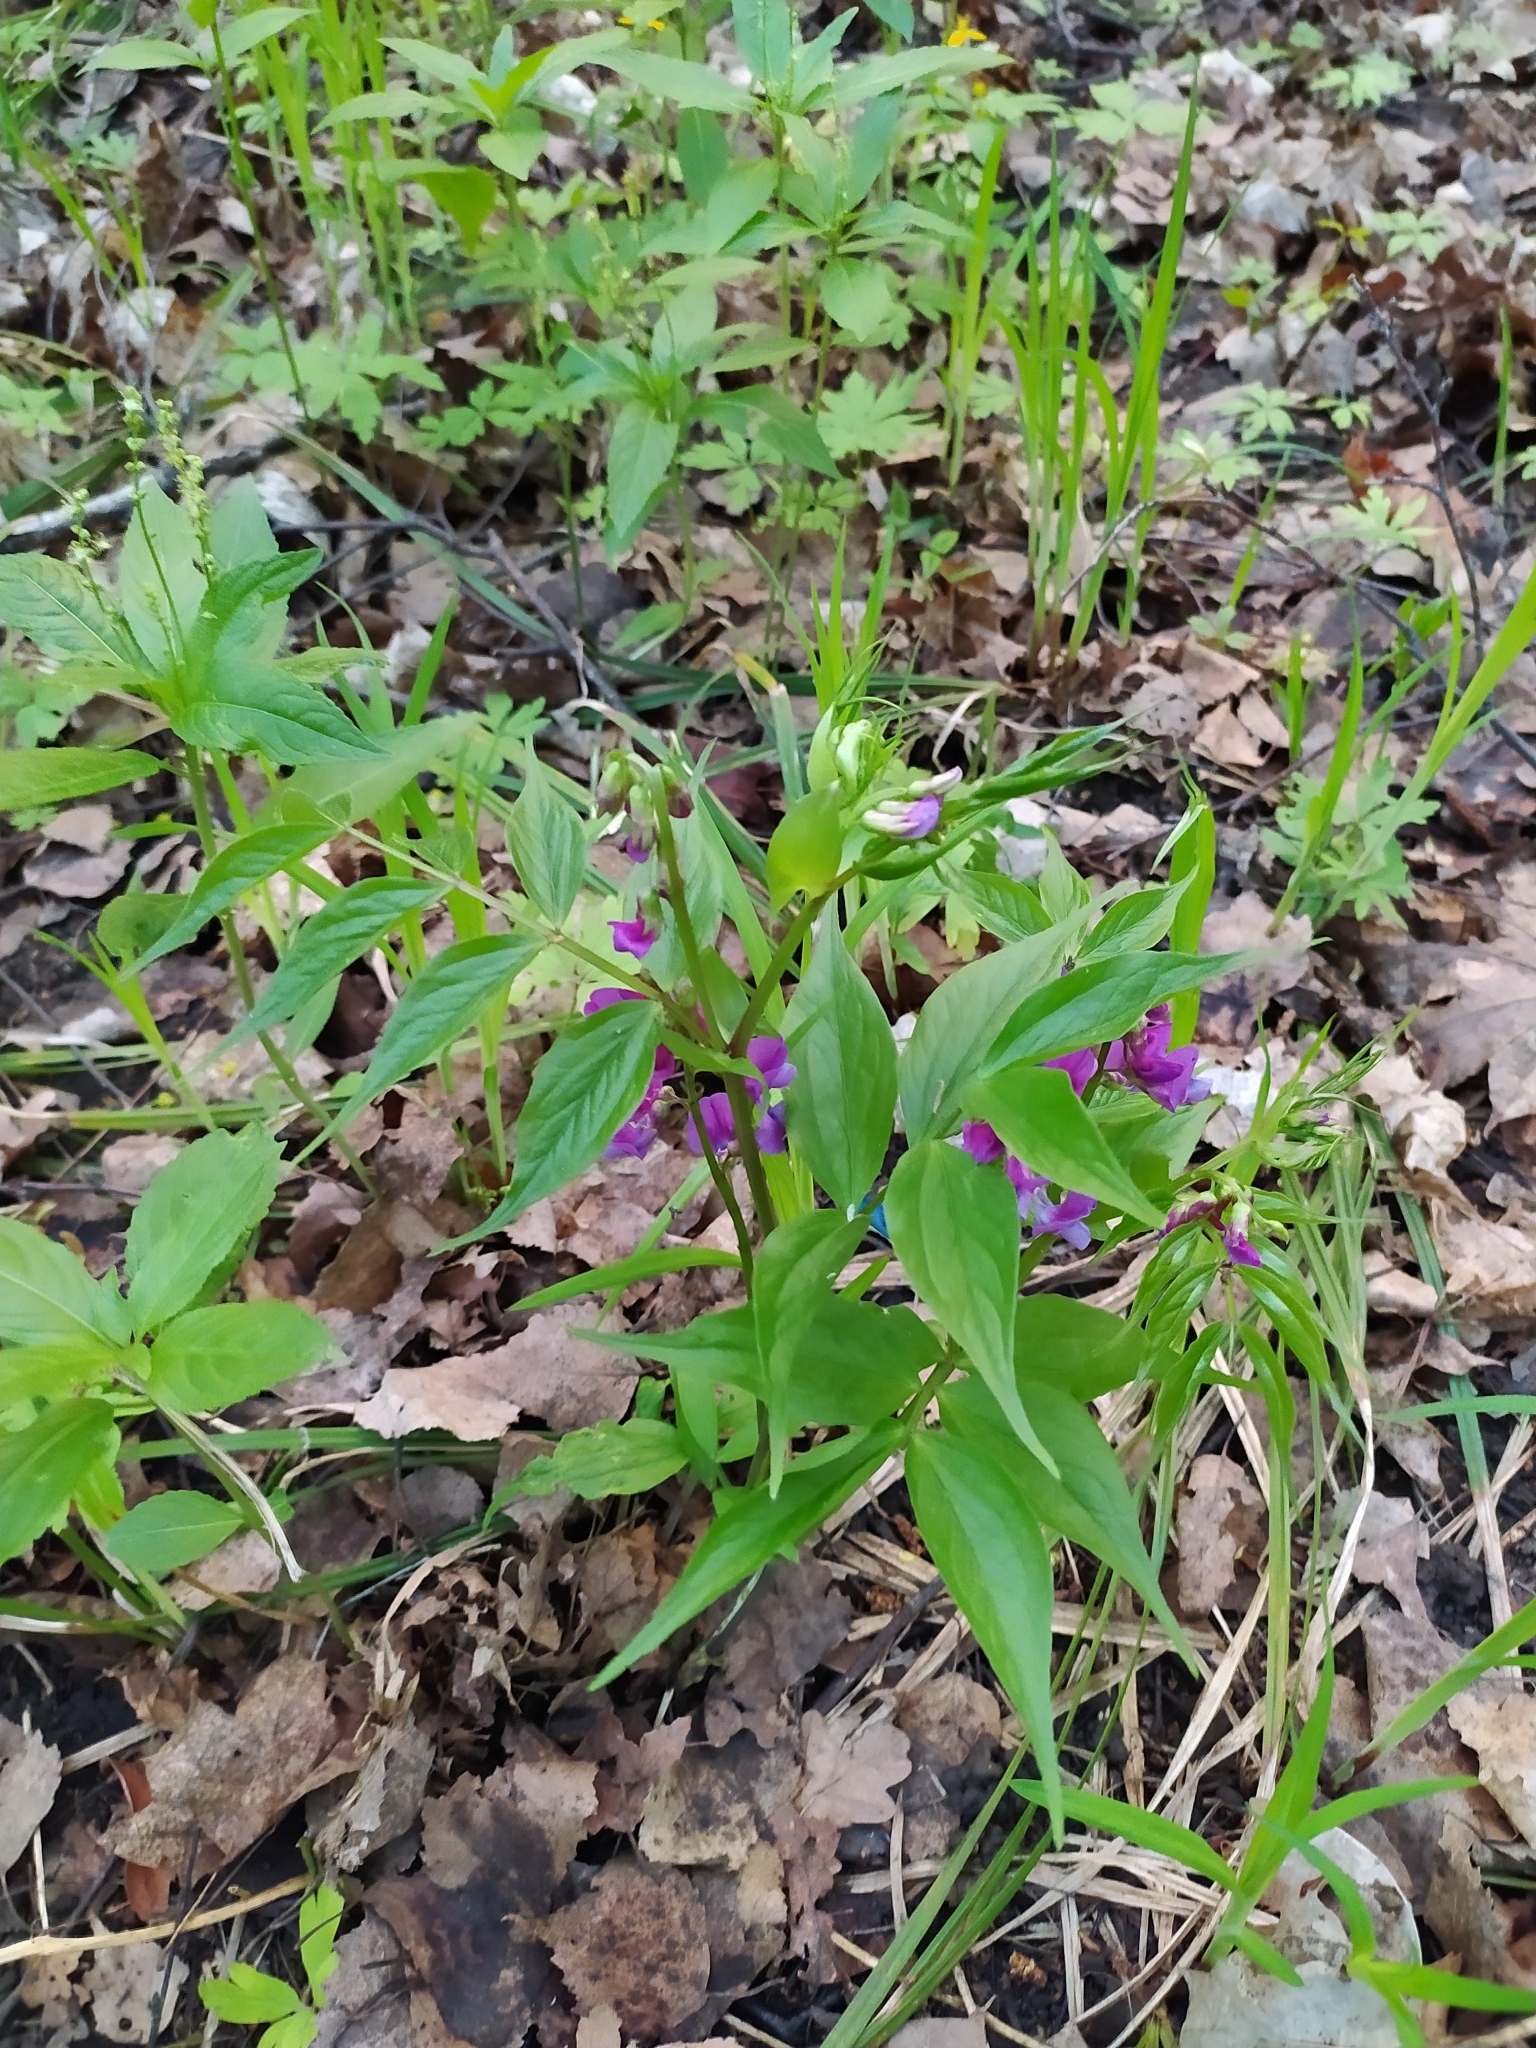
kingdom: Plantae
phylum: Tracheophyta
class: Magnoliopsida
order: Fabales
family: Fabaceae
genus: Lathyrus
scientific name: Lathyrus vernus
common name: Spring pea
